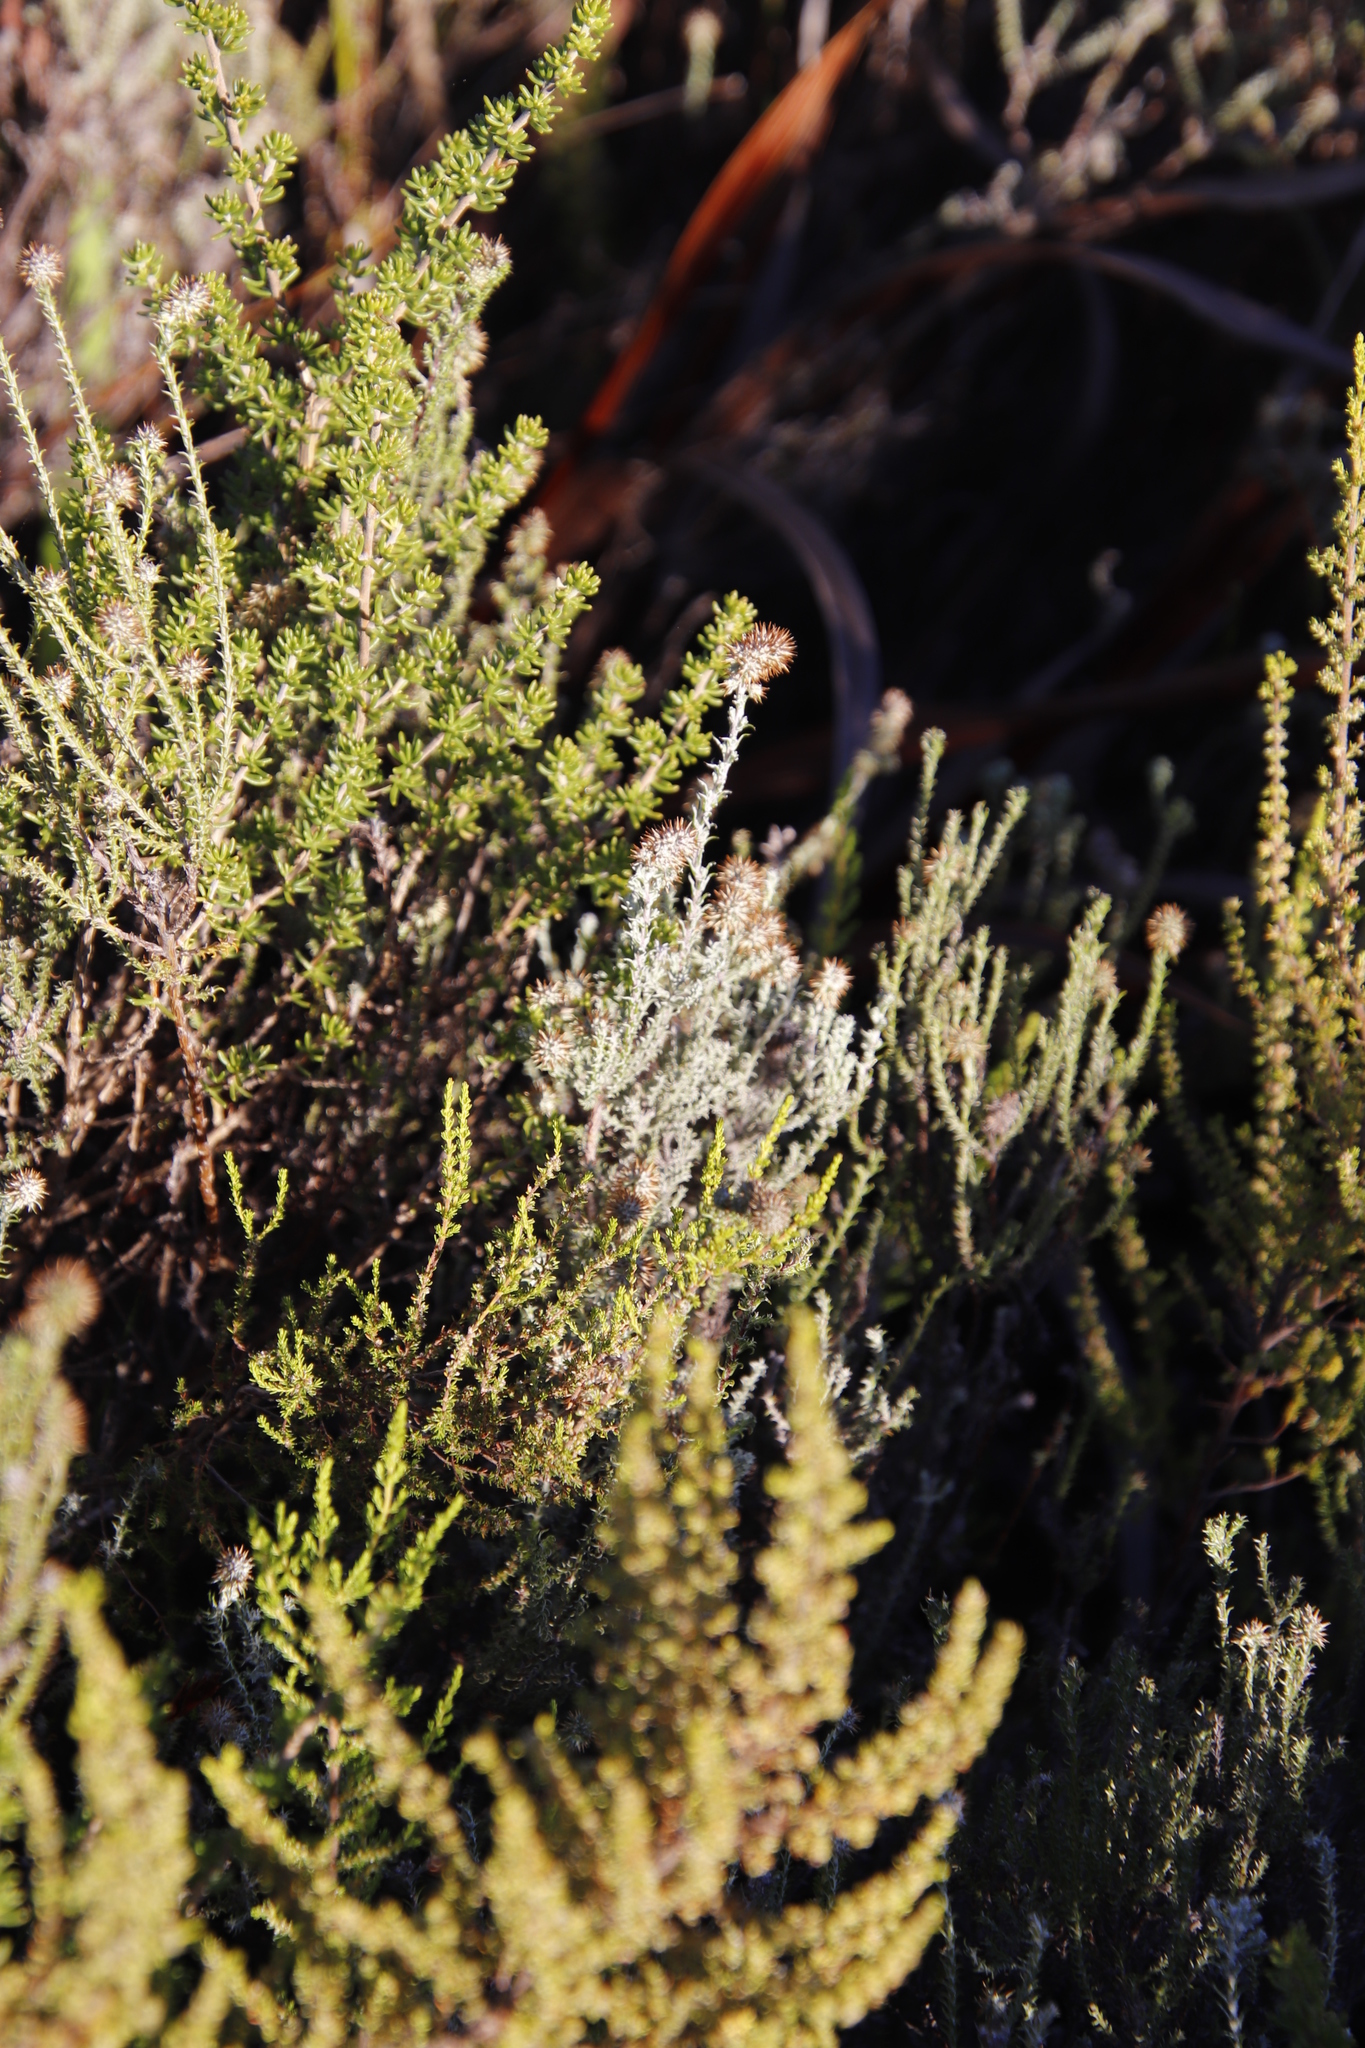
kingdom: Plantae
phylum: Tracheophyta
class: Magnoliopsida
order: Asterales
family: Asteraceae
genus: Seriphium
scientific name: Seriphium cinereum
